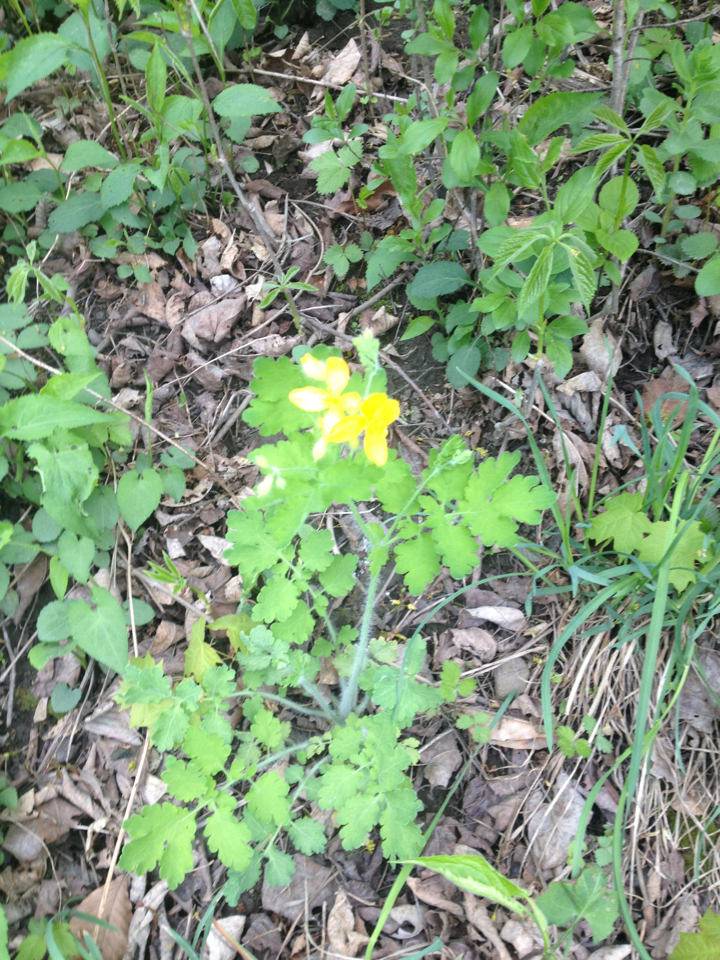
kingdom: Plantae
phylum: Tracheophyta
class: Magnoliopsida
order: Ranunculales
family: Papaveraceae
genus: Chelidonium
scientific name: Chelidonium majus
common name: Greater celandine
